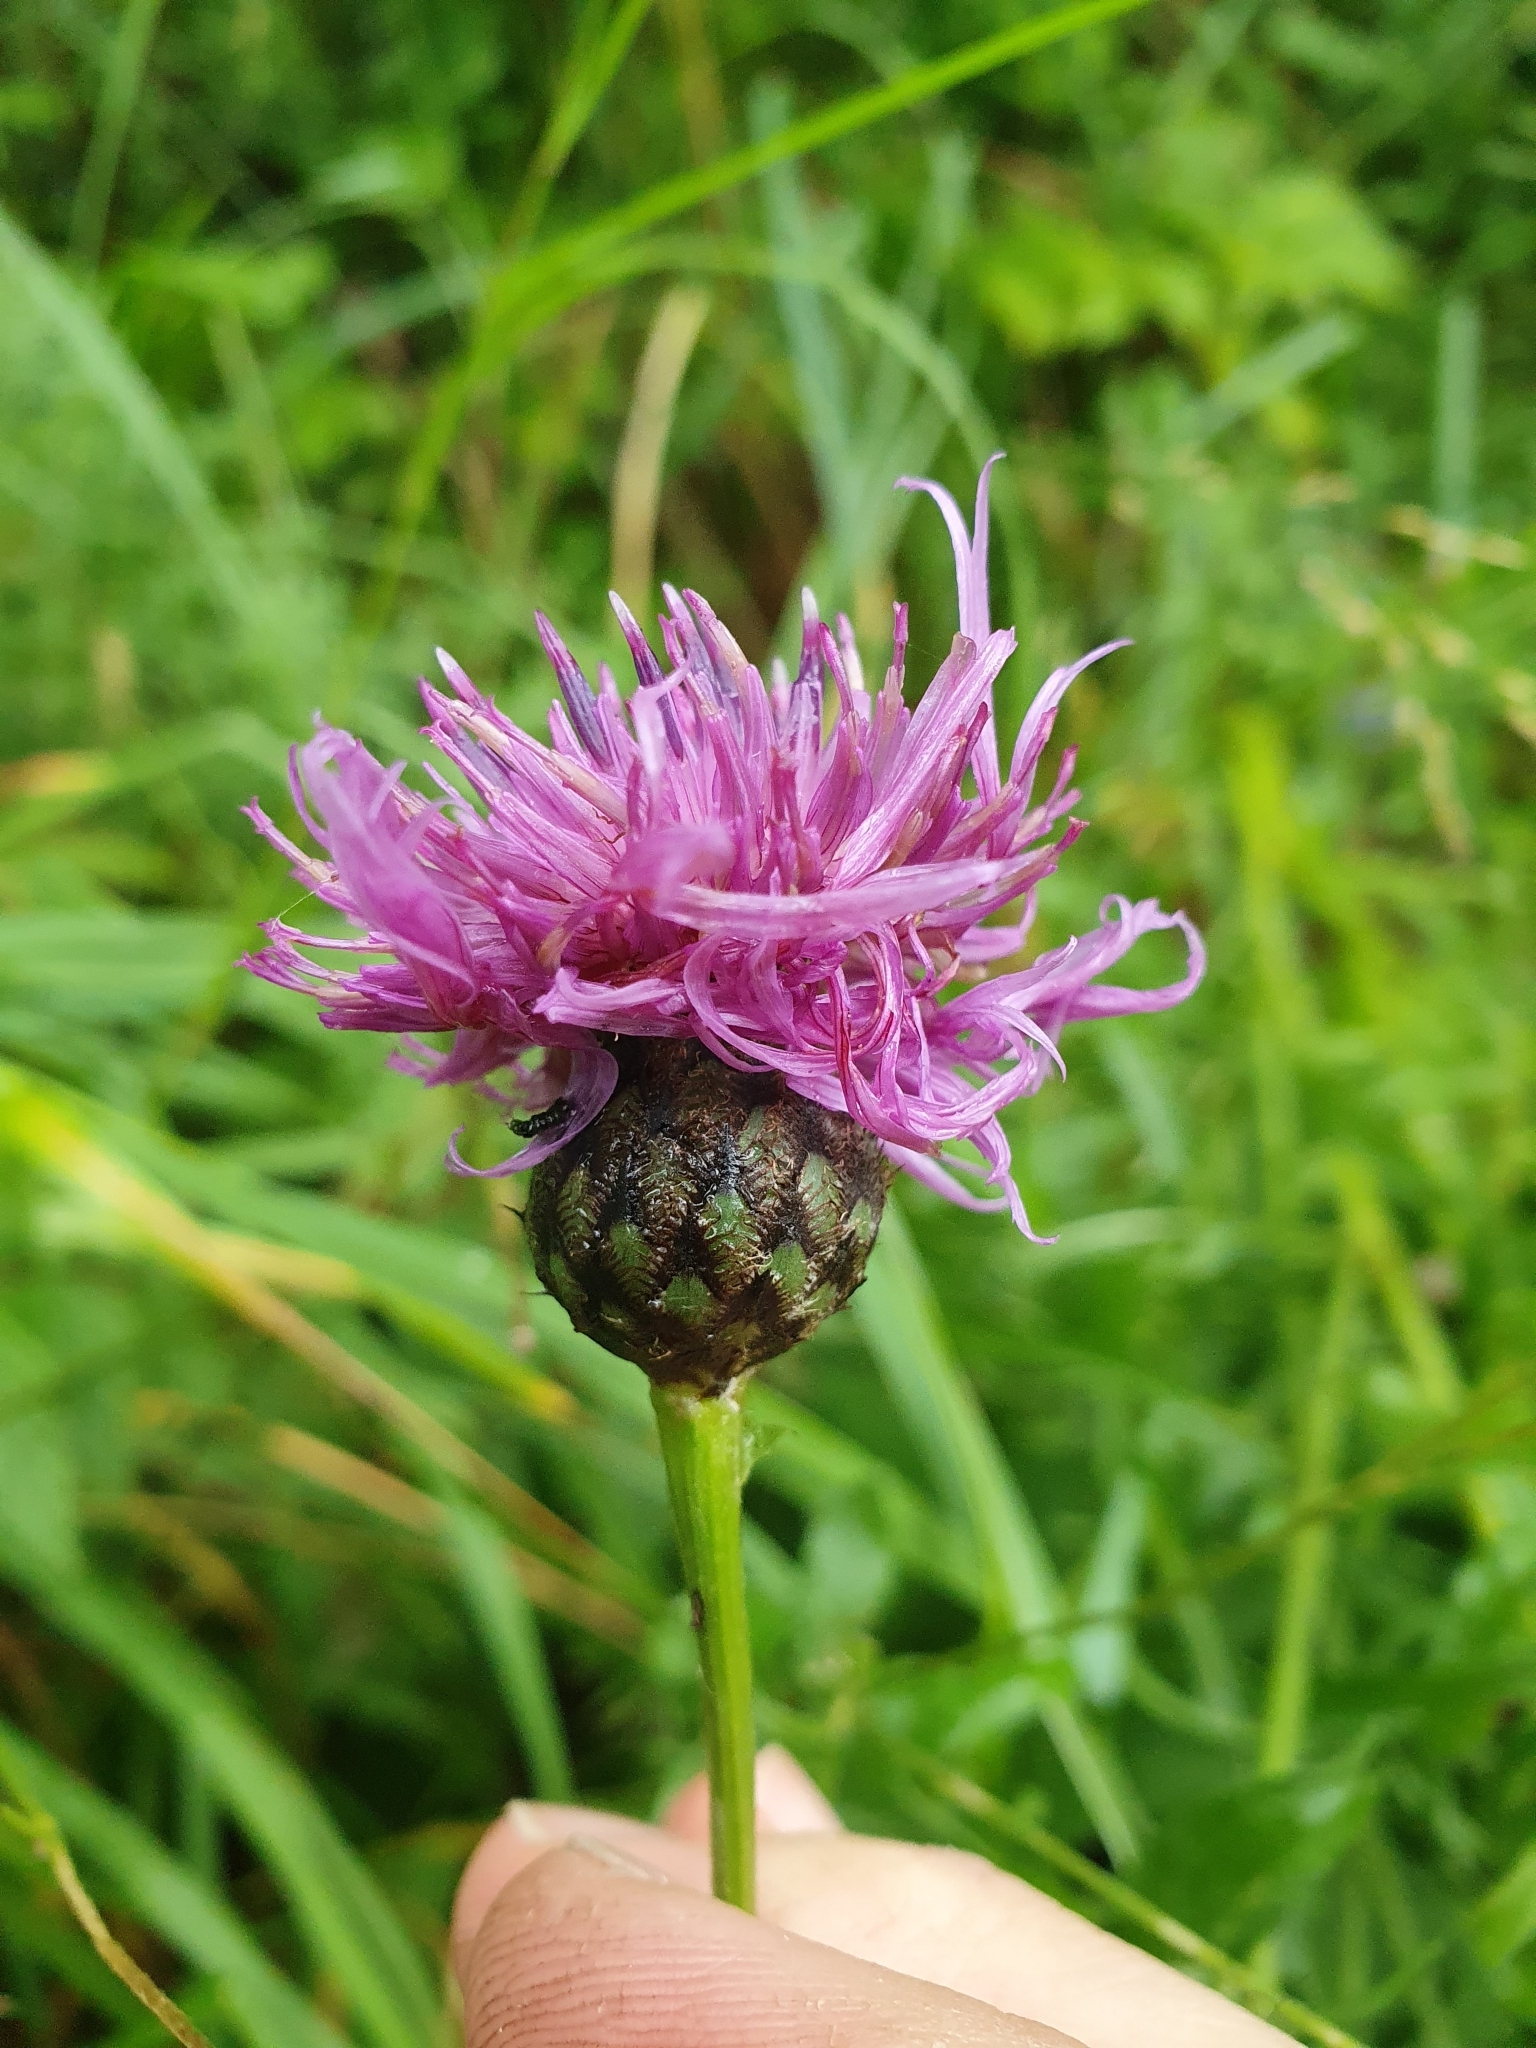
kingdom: Plantae
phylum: Tracheophyta
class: Magnoliopsida
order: Asterales
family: Asteraceae
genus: Centaurea
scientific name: Centaurea scabiosa
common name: Greater knapweed
